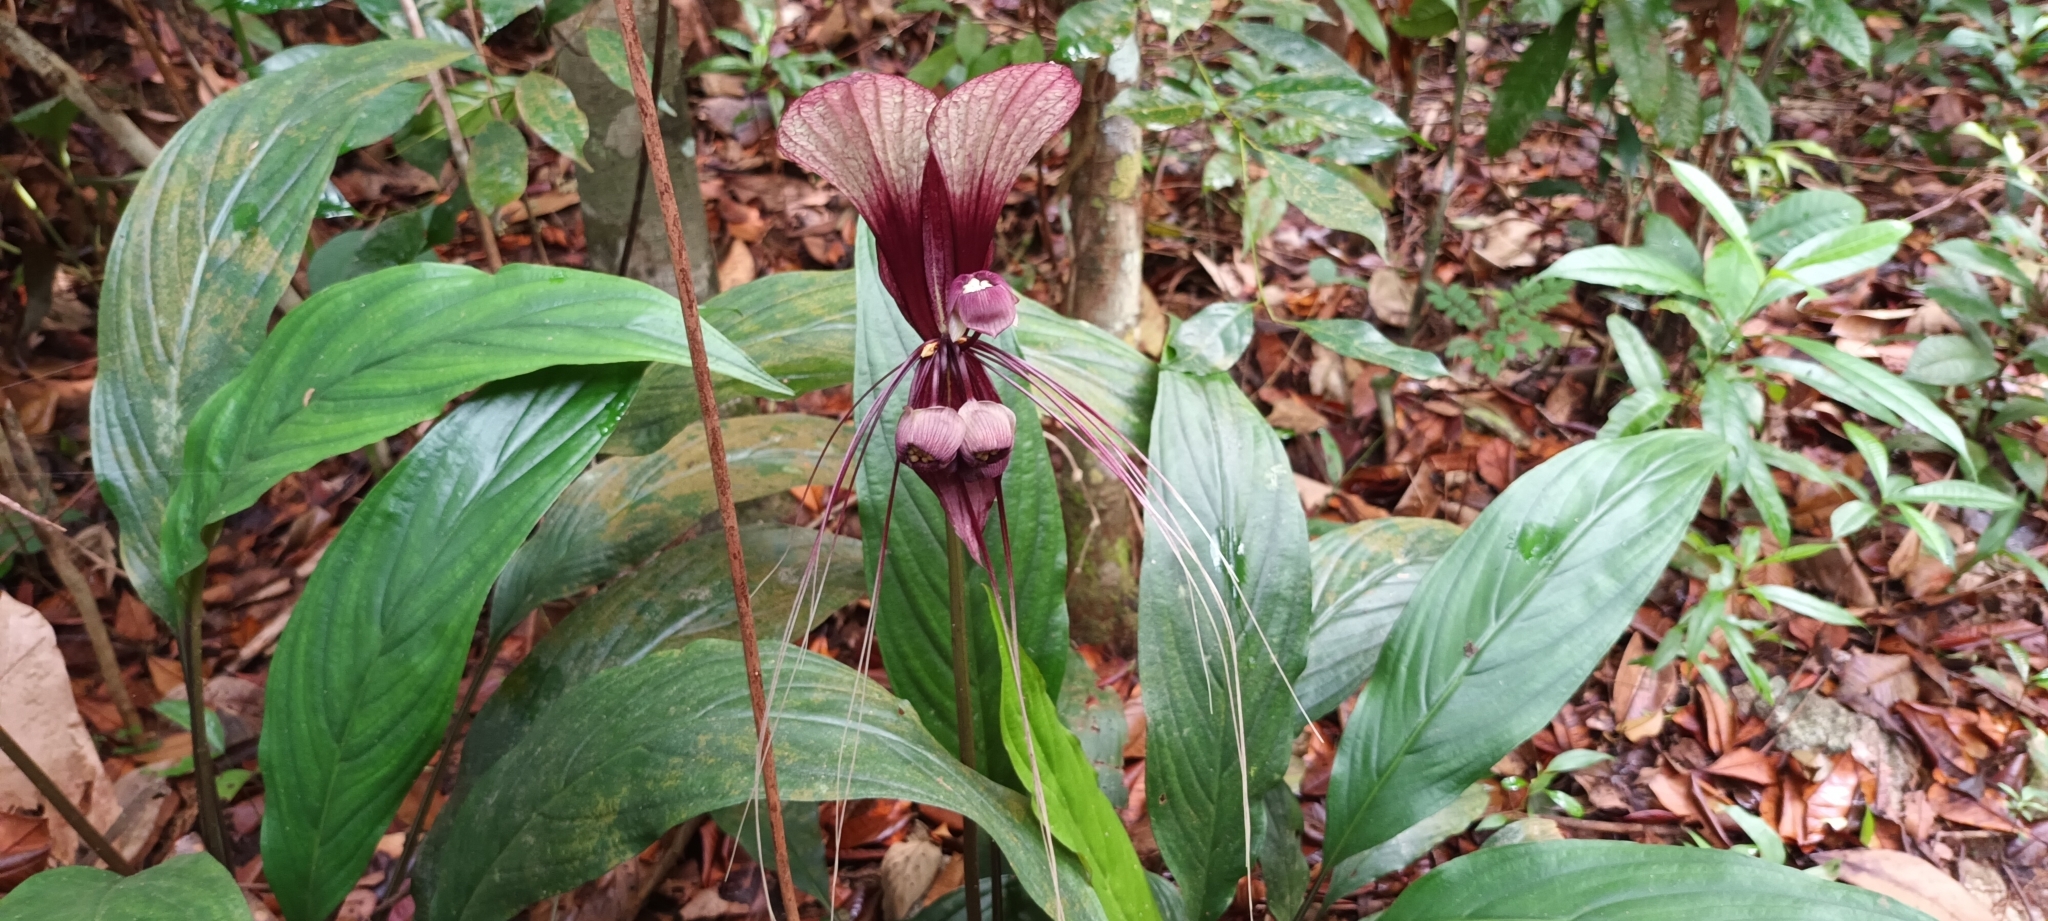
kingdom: Plantae
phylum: Tracheophyta
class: Liliopsida
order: Dioscoreales
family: Dioscoreaceae
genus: Tacca
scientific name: Tacca cristata
